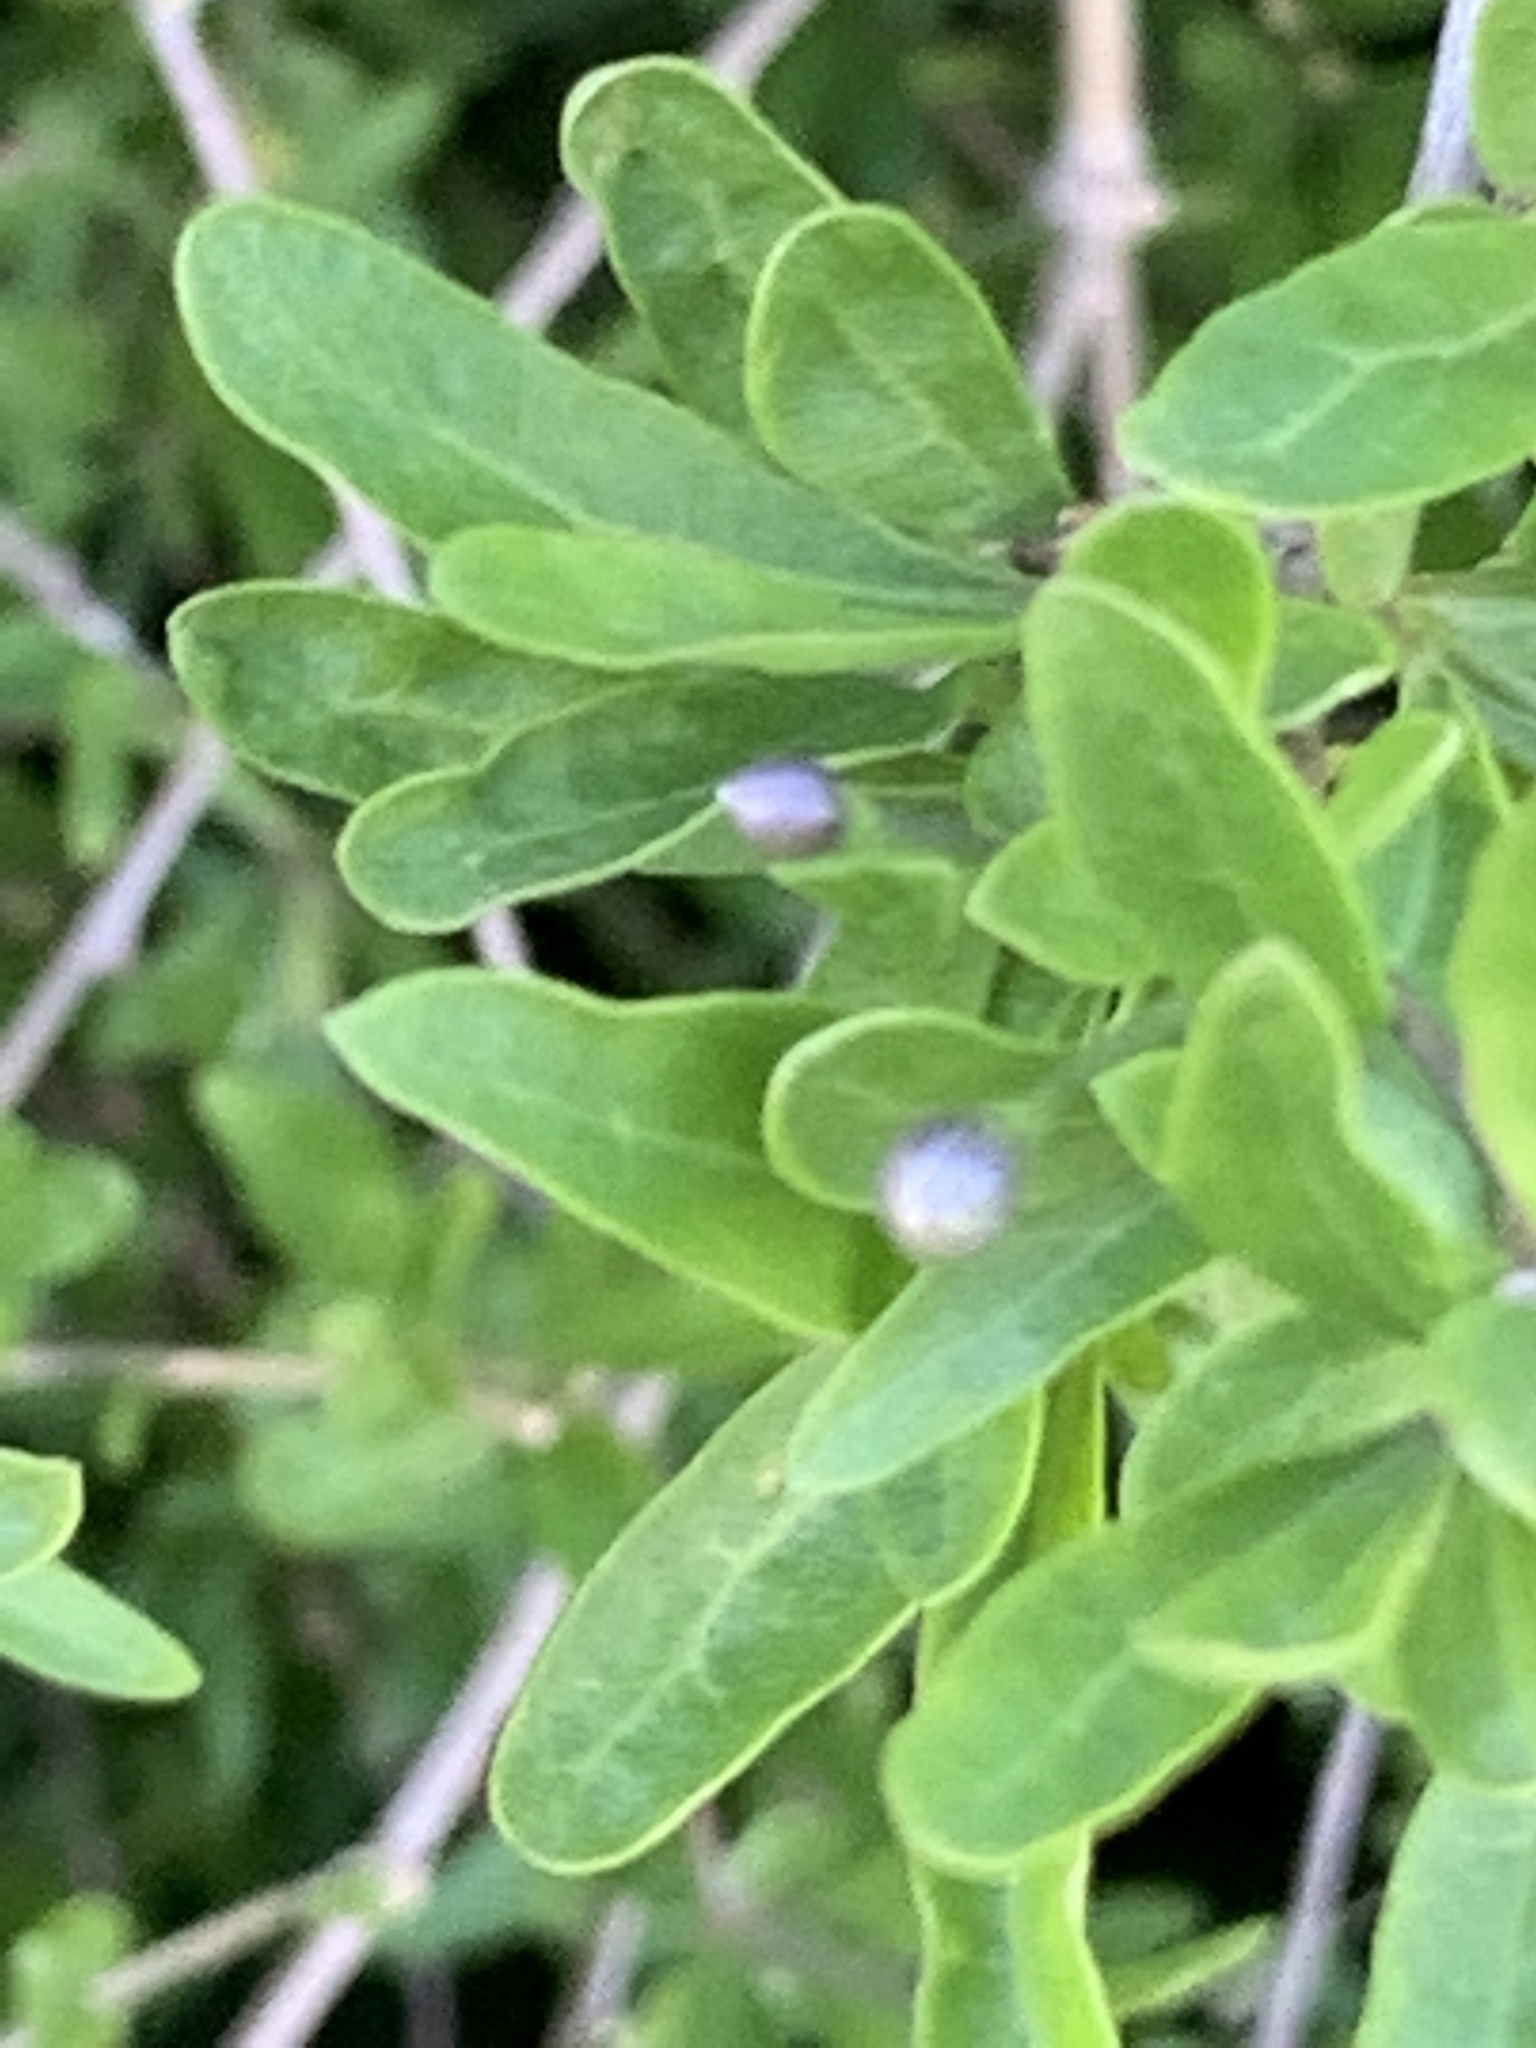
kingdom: Plantae
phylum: Tracheophyta
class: Magnoliopsida
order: Solanales
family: Solanaceae
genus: Lycium
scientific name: Lycium barbarum
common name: Duke of argyll's teaplant
